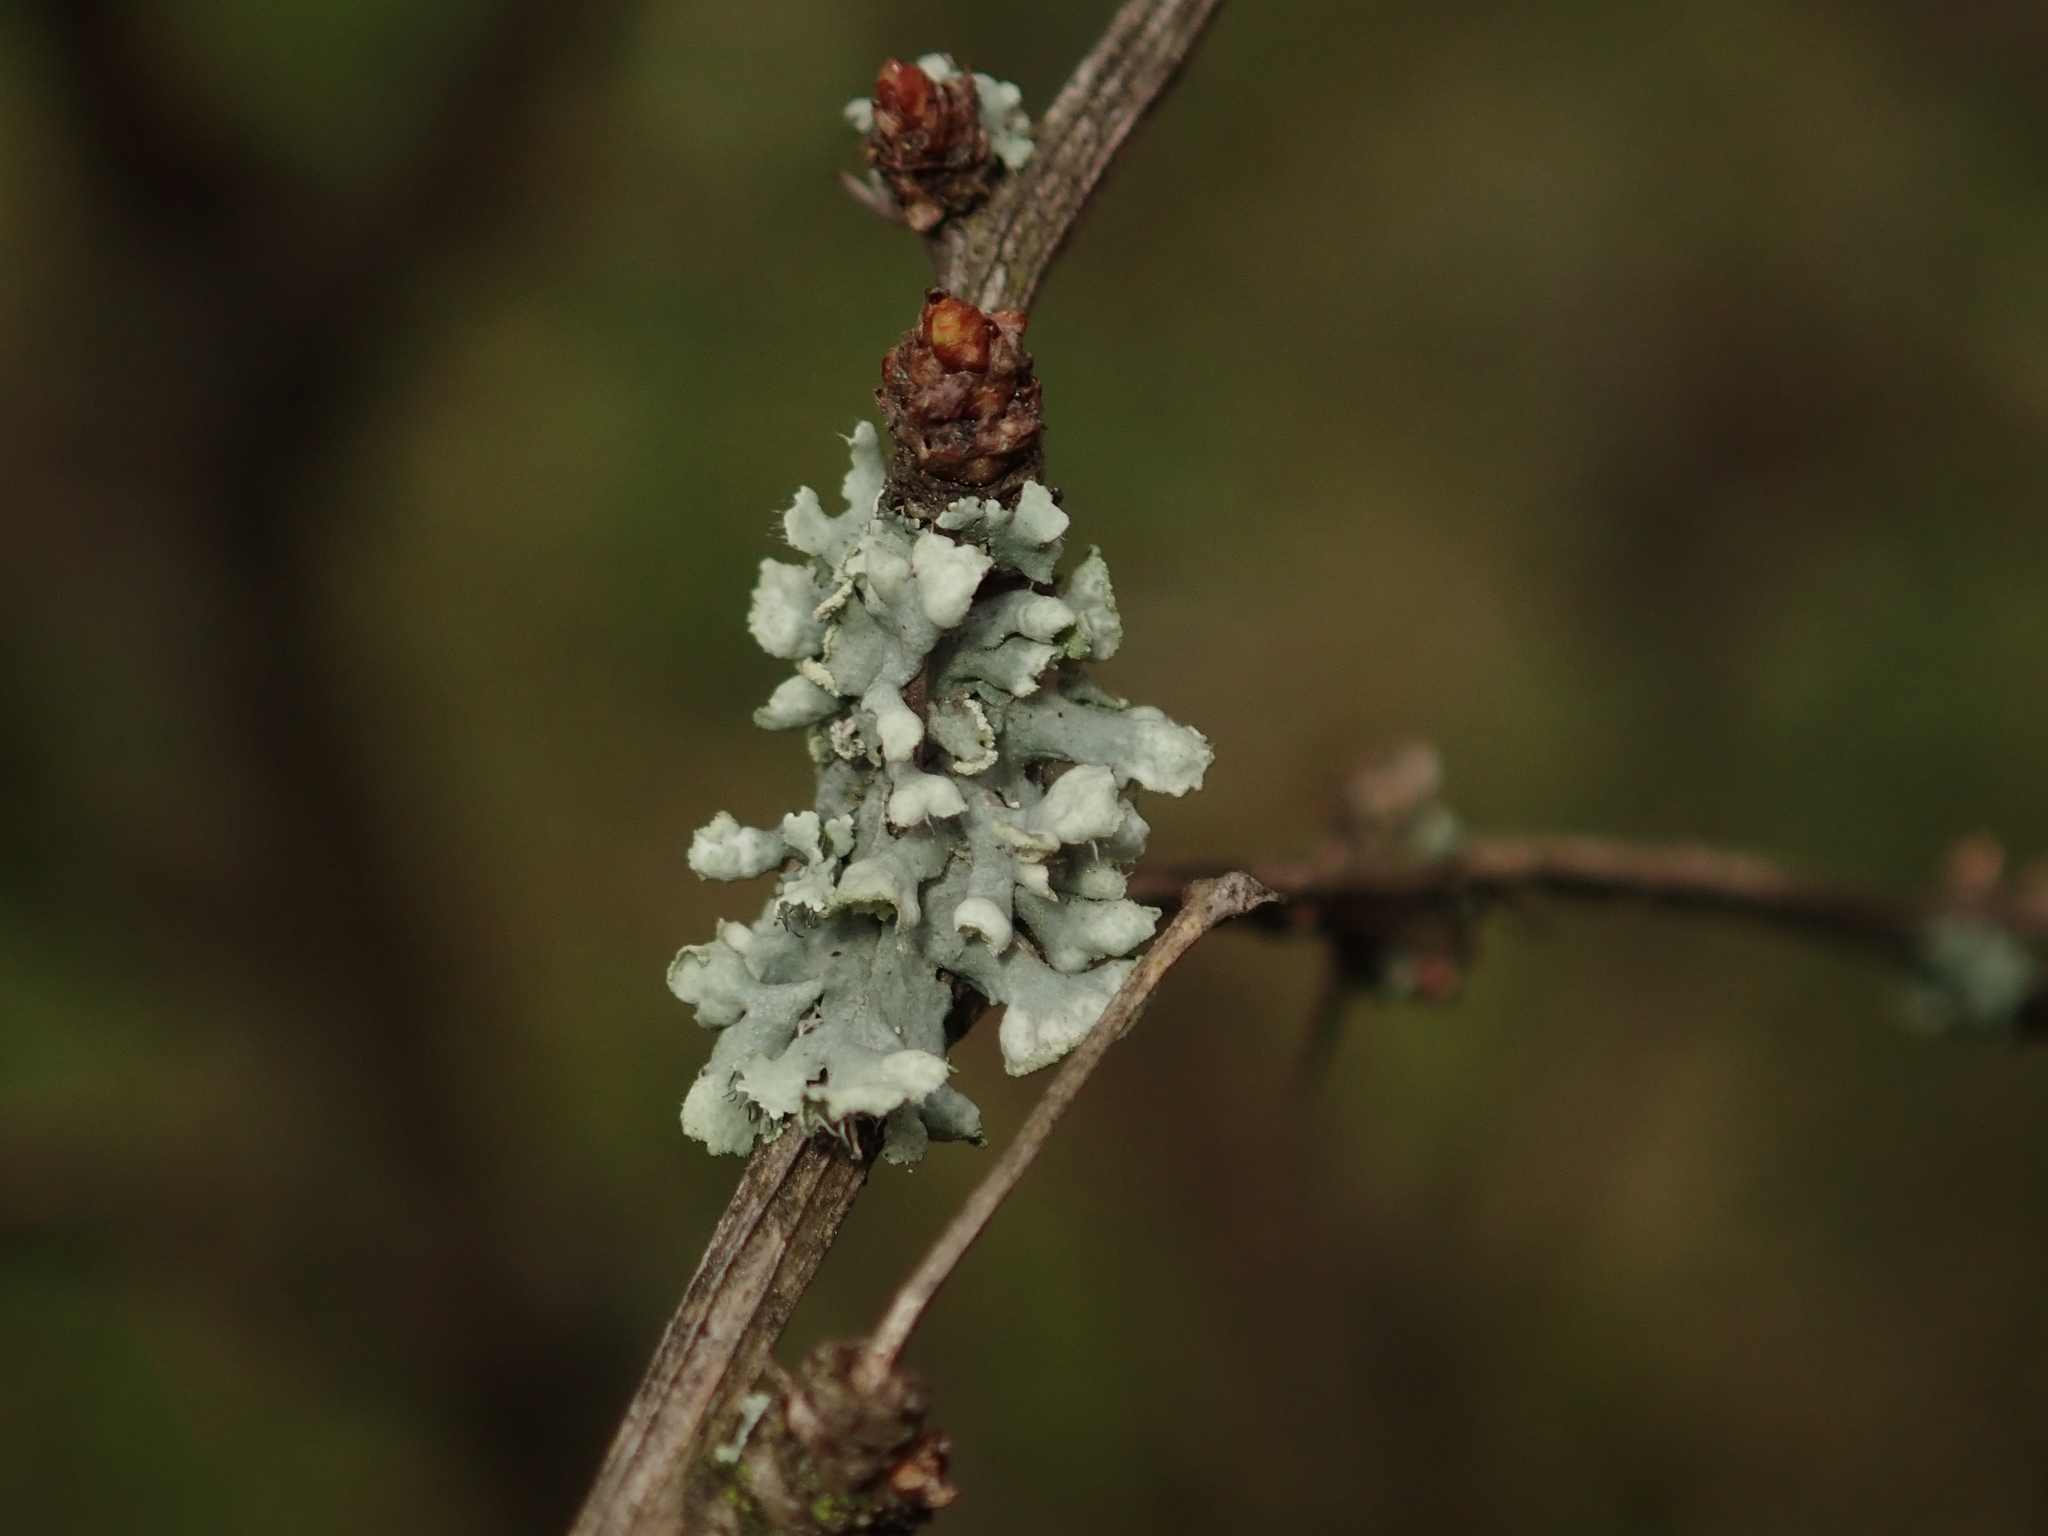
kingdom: Fungi
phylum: Ascomycota
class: Lecanoromycetes
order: Caliciales
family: Physciaceae
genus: Physcia
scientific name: Physcia adscendens
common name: Hooded rosette lichen
